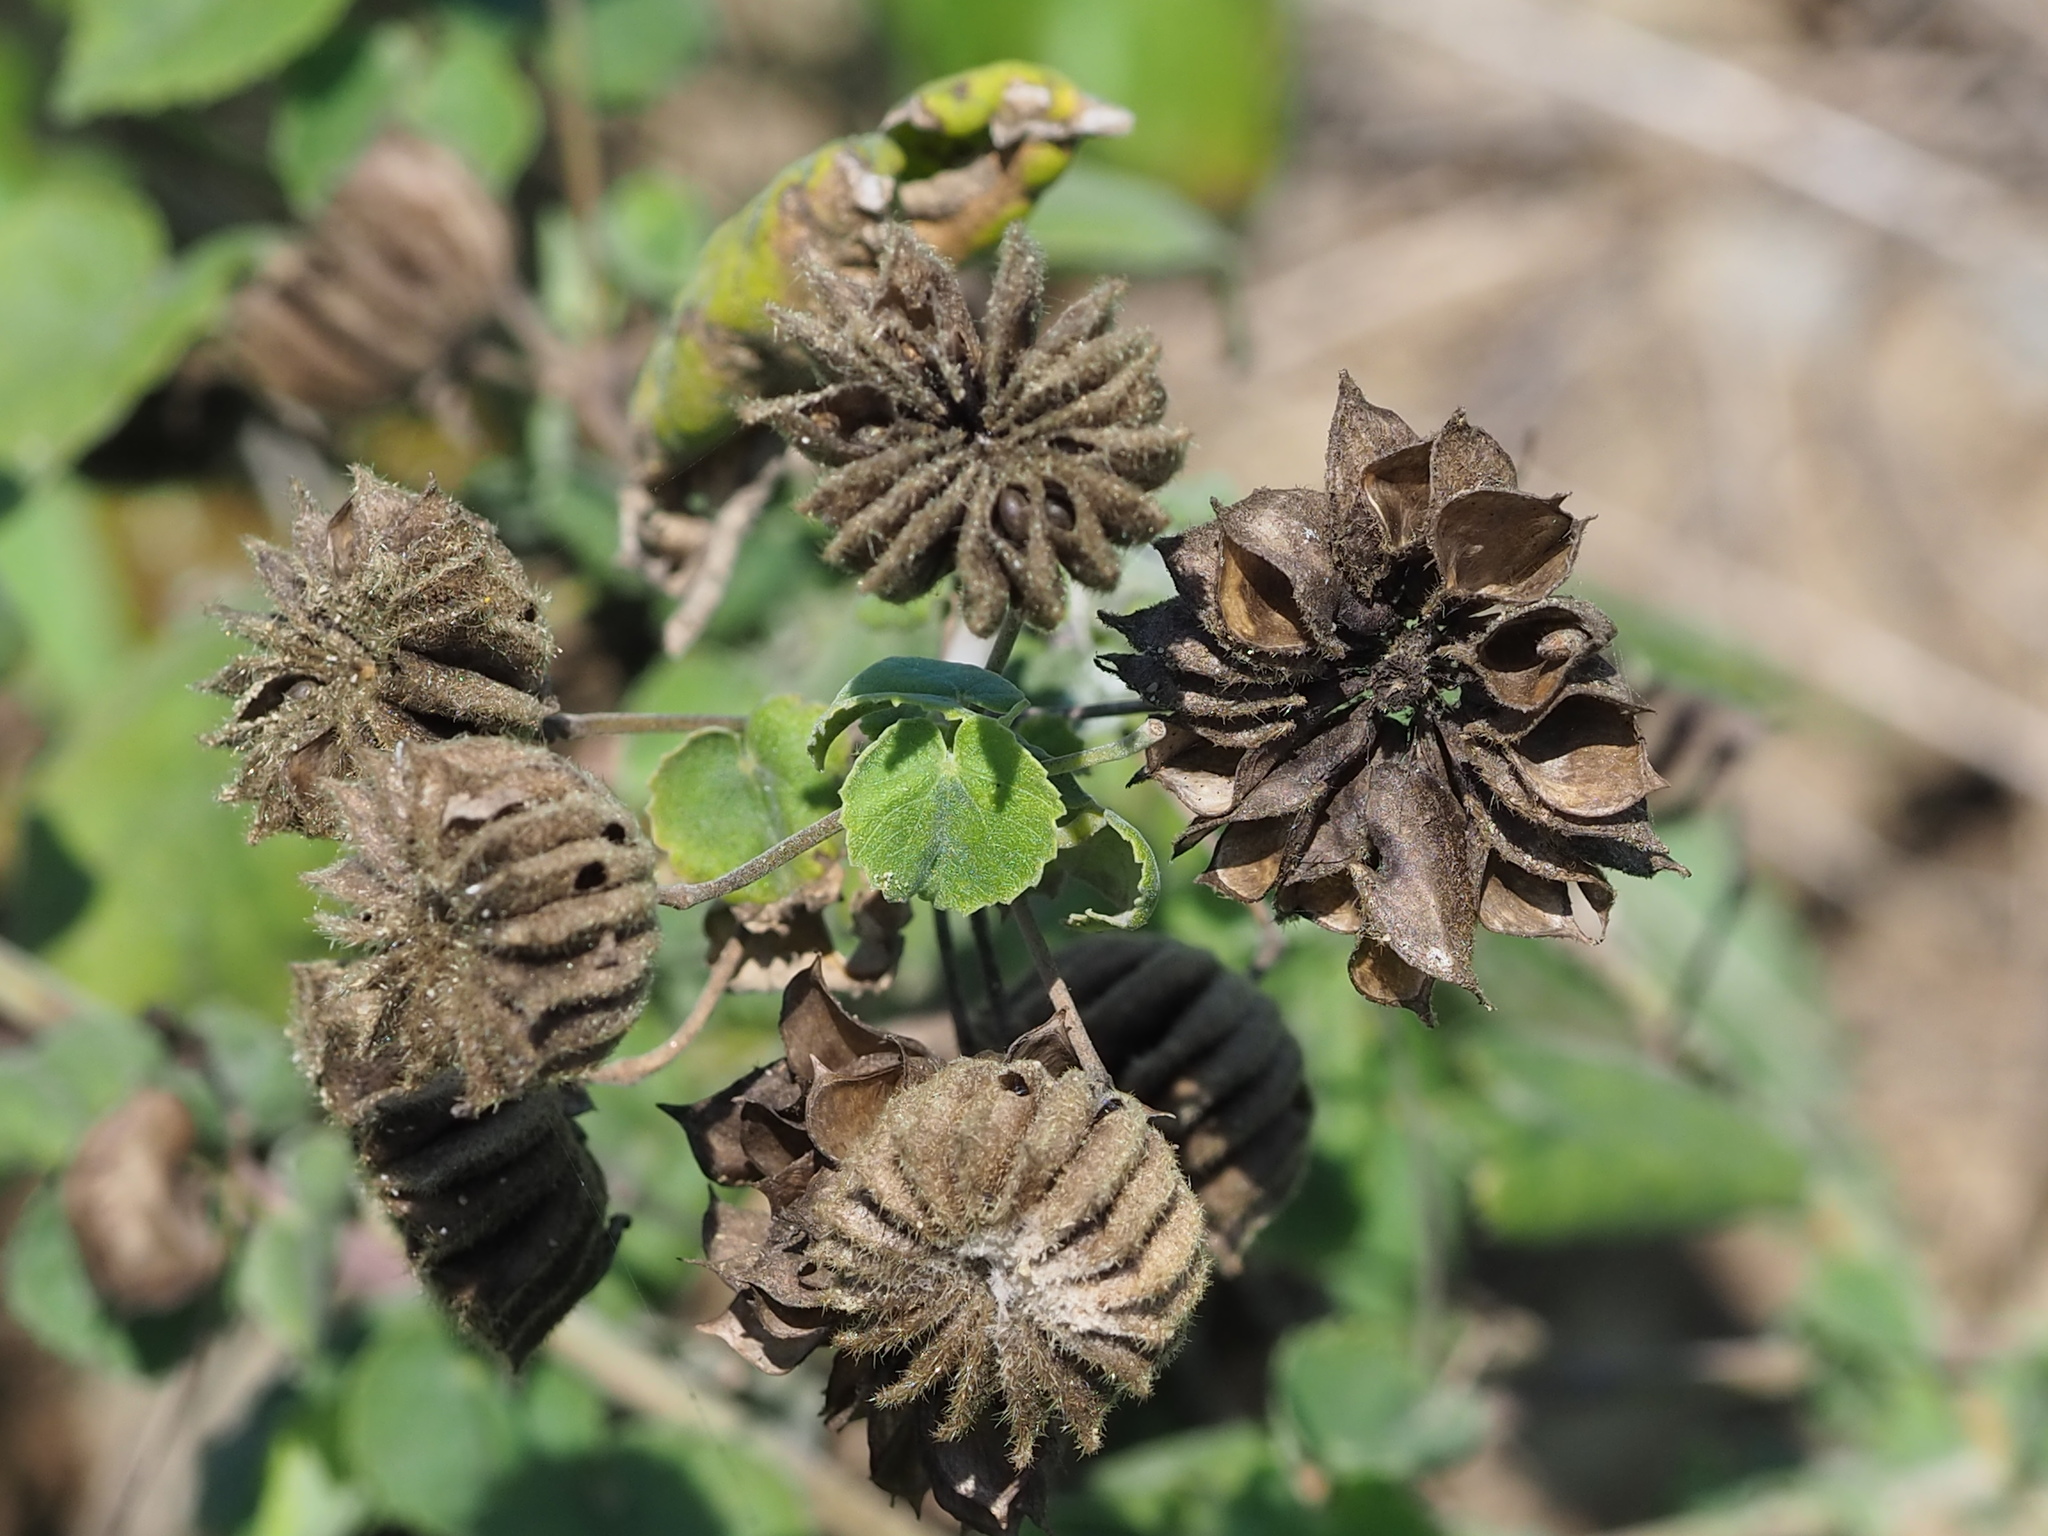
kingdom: Plantae
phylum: Tracheophyta
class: Magnoliopsida
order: Malvales
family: Malvaceae
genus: Abutilon
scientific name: Abutilon indicum
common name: Indian abutilon
